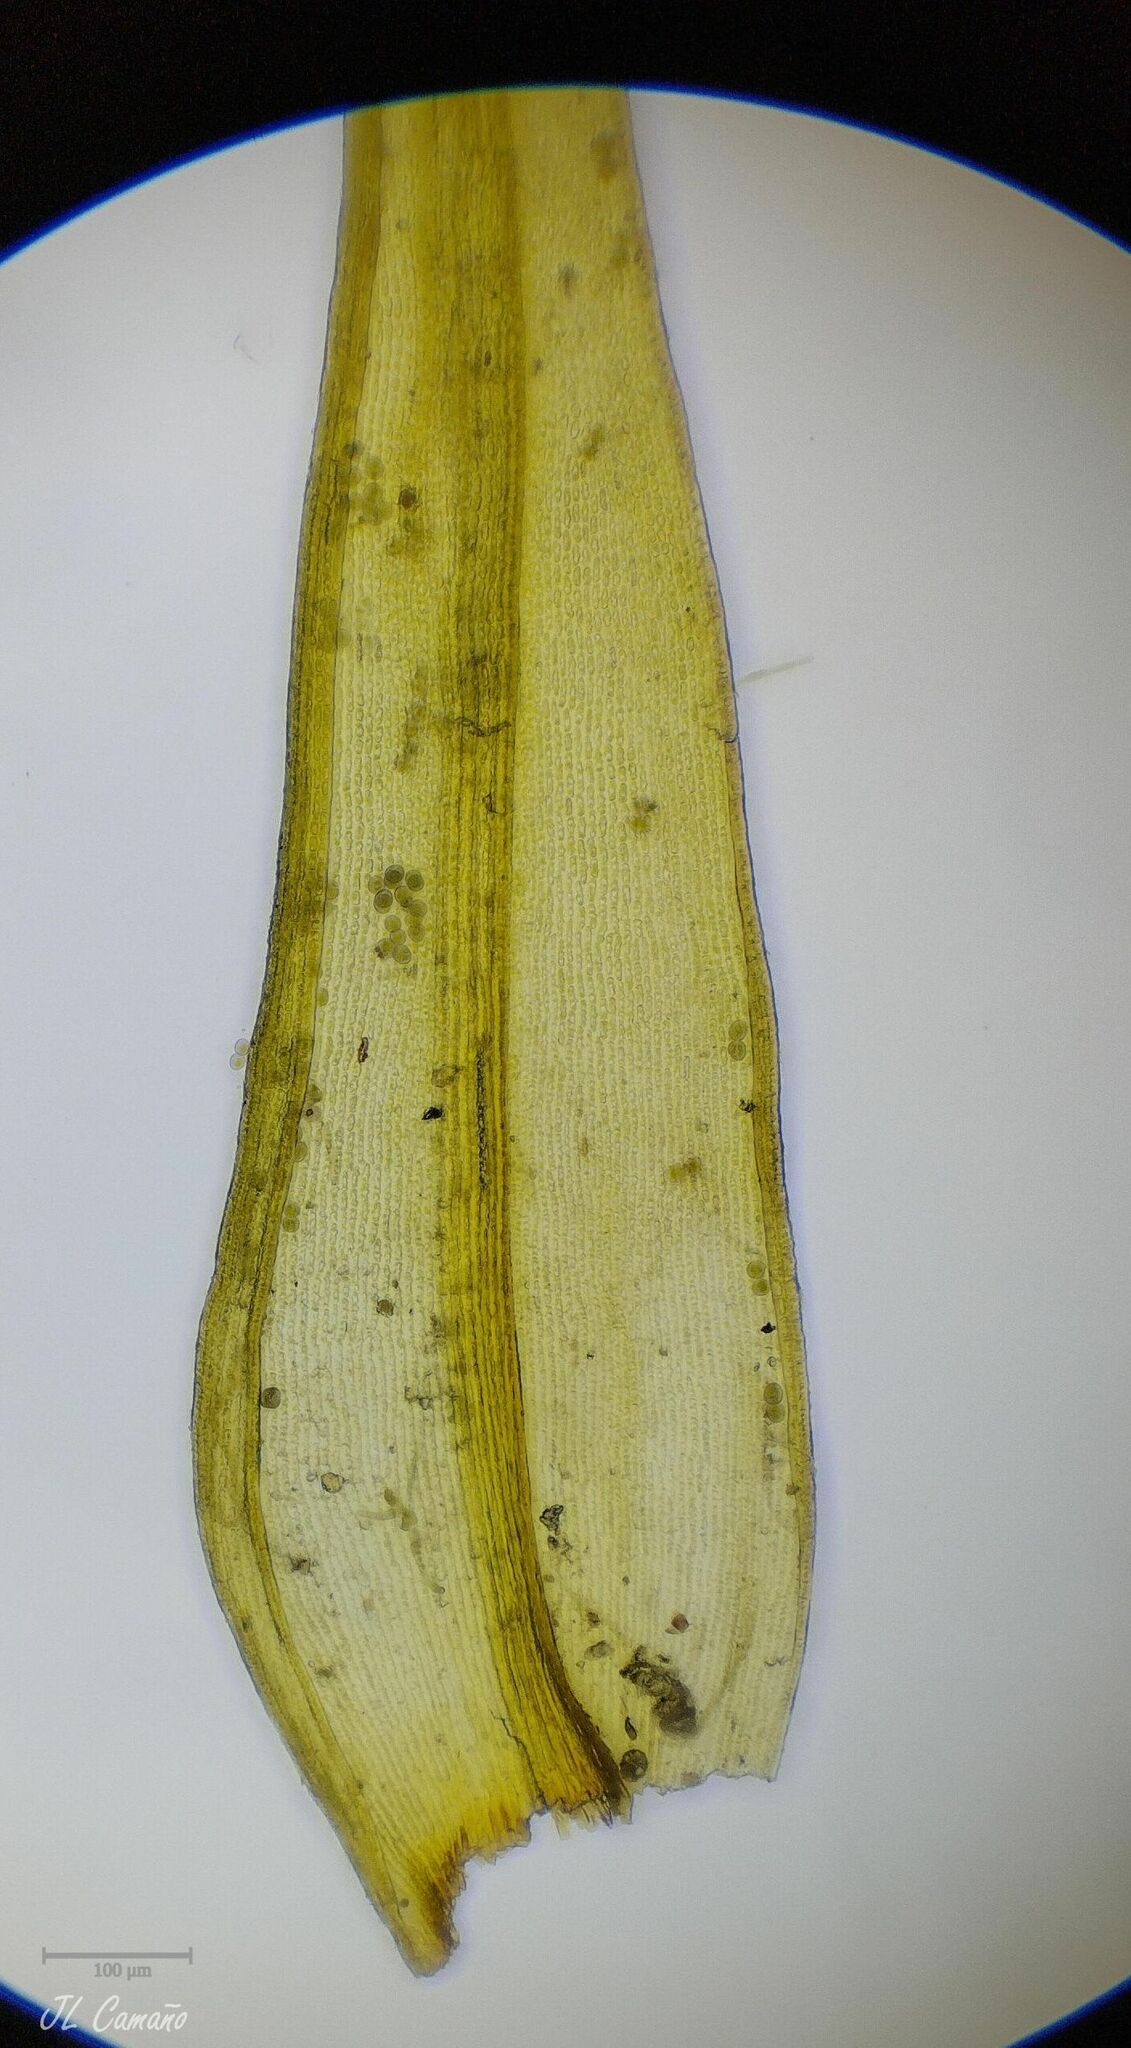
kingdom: Plantae
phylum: Bryophyta
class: Bryopsida
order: Grimmiales
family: Grimmiaceae
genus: Bucklandiella
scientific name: Bucklandiella heterosticha
